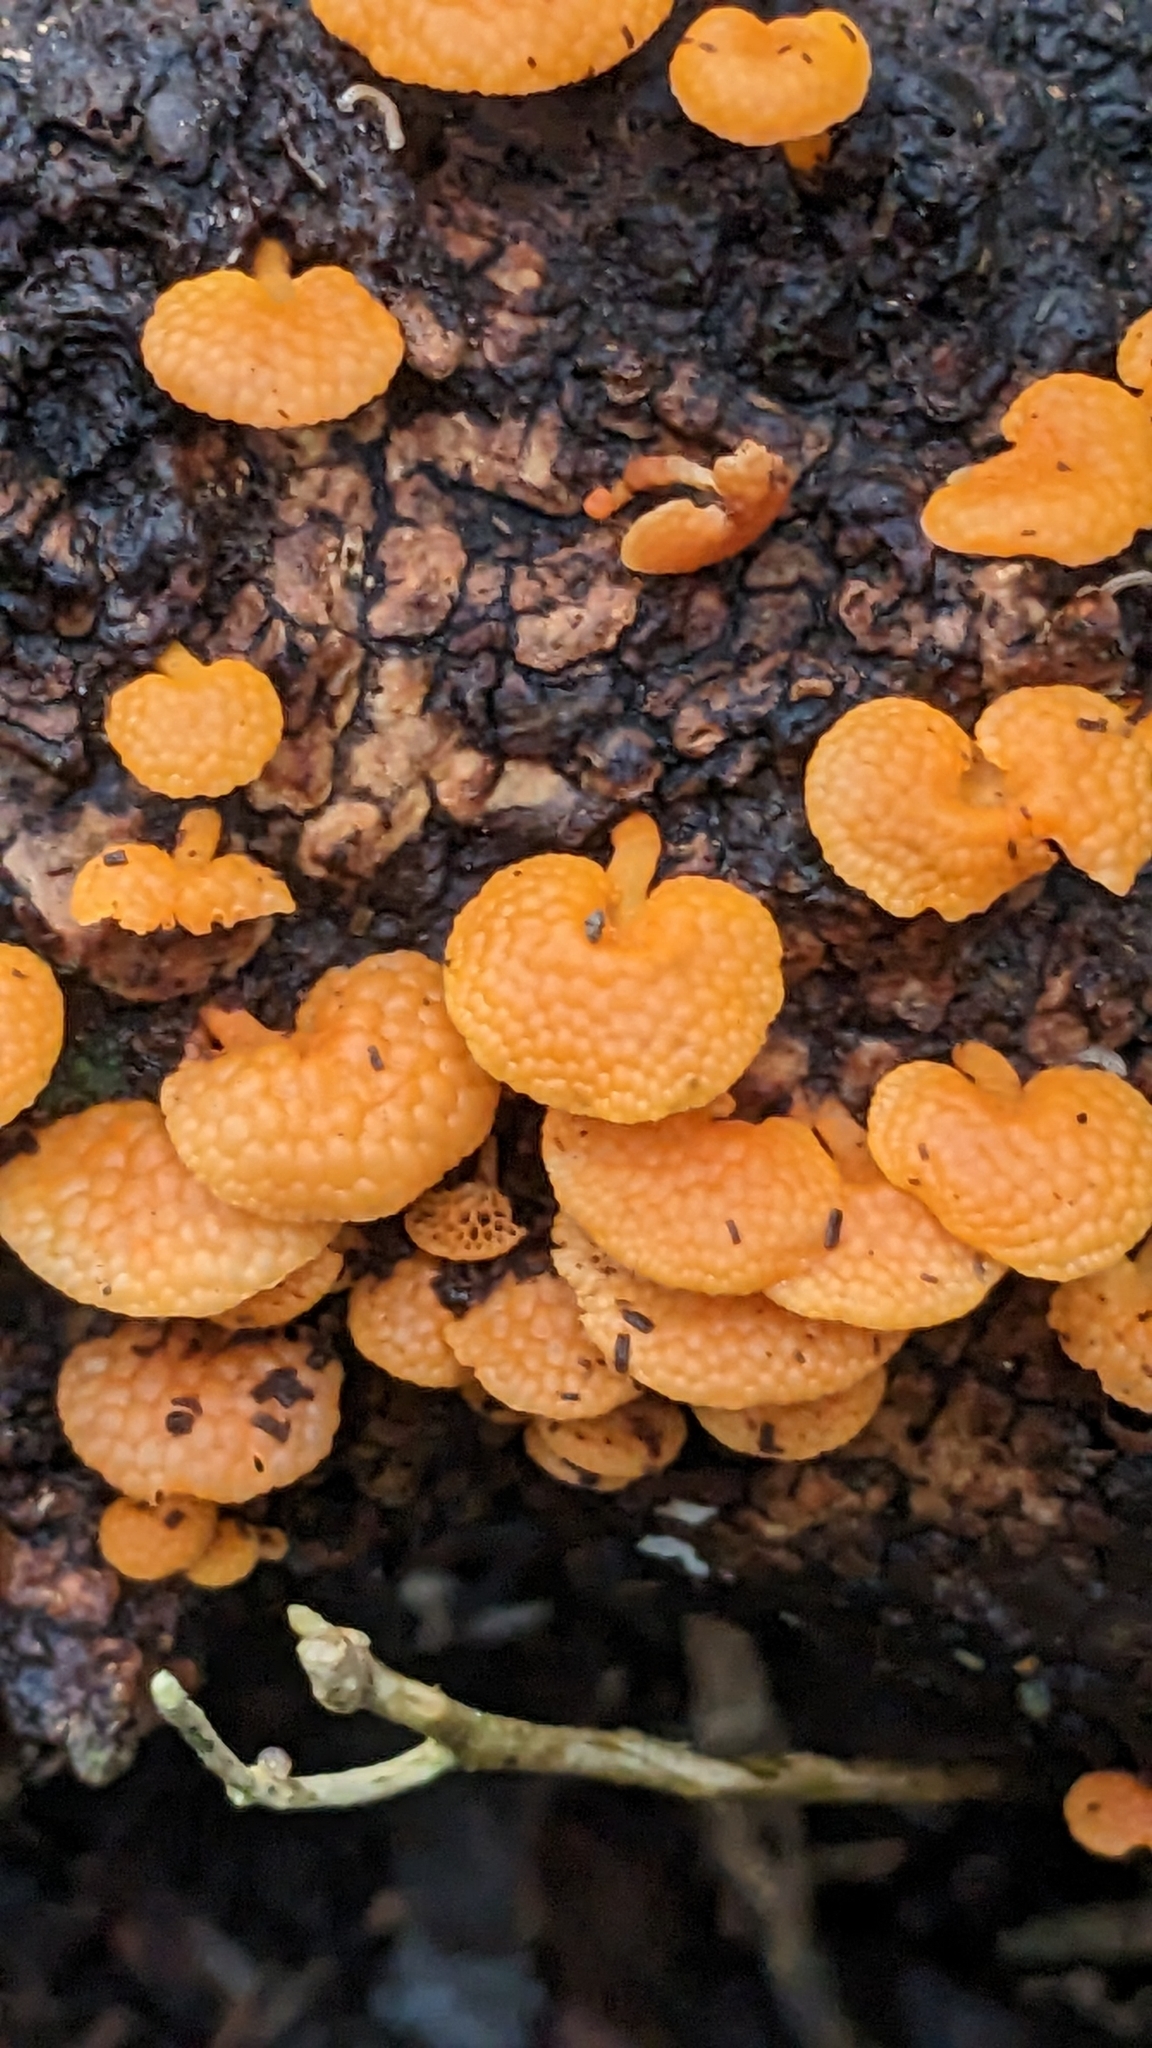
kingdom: Fungi
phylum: Basidiomycota
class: Agaricomycetes
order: Agaricales
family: Mycenaceae
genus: Favolaschia
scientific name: Favolaschia claudopus
